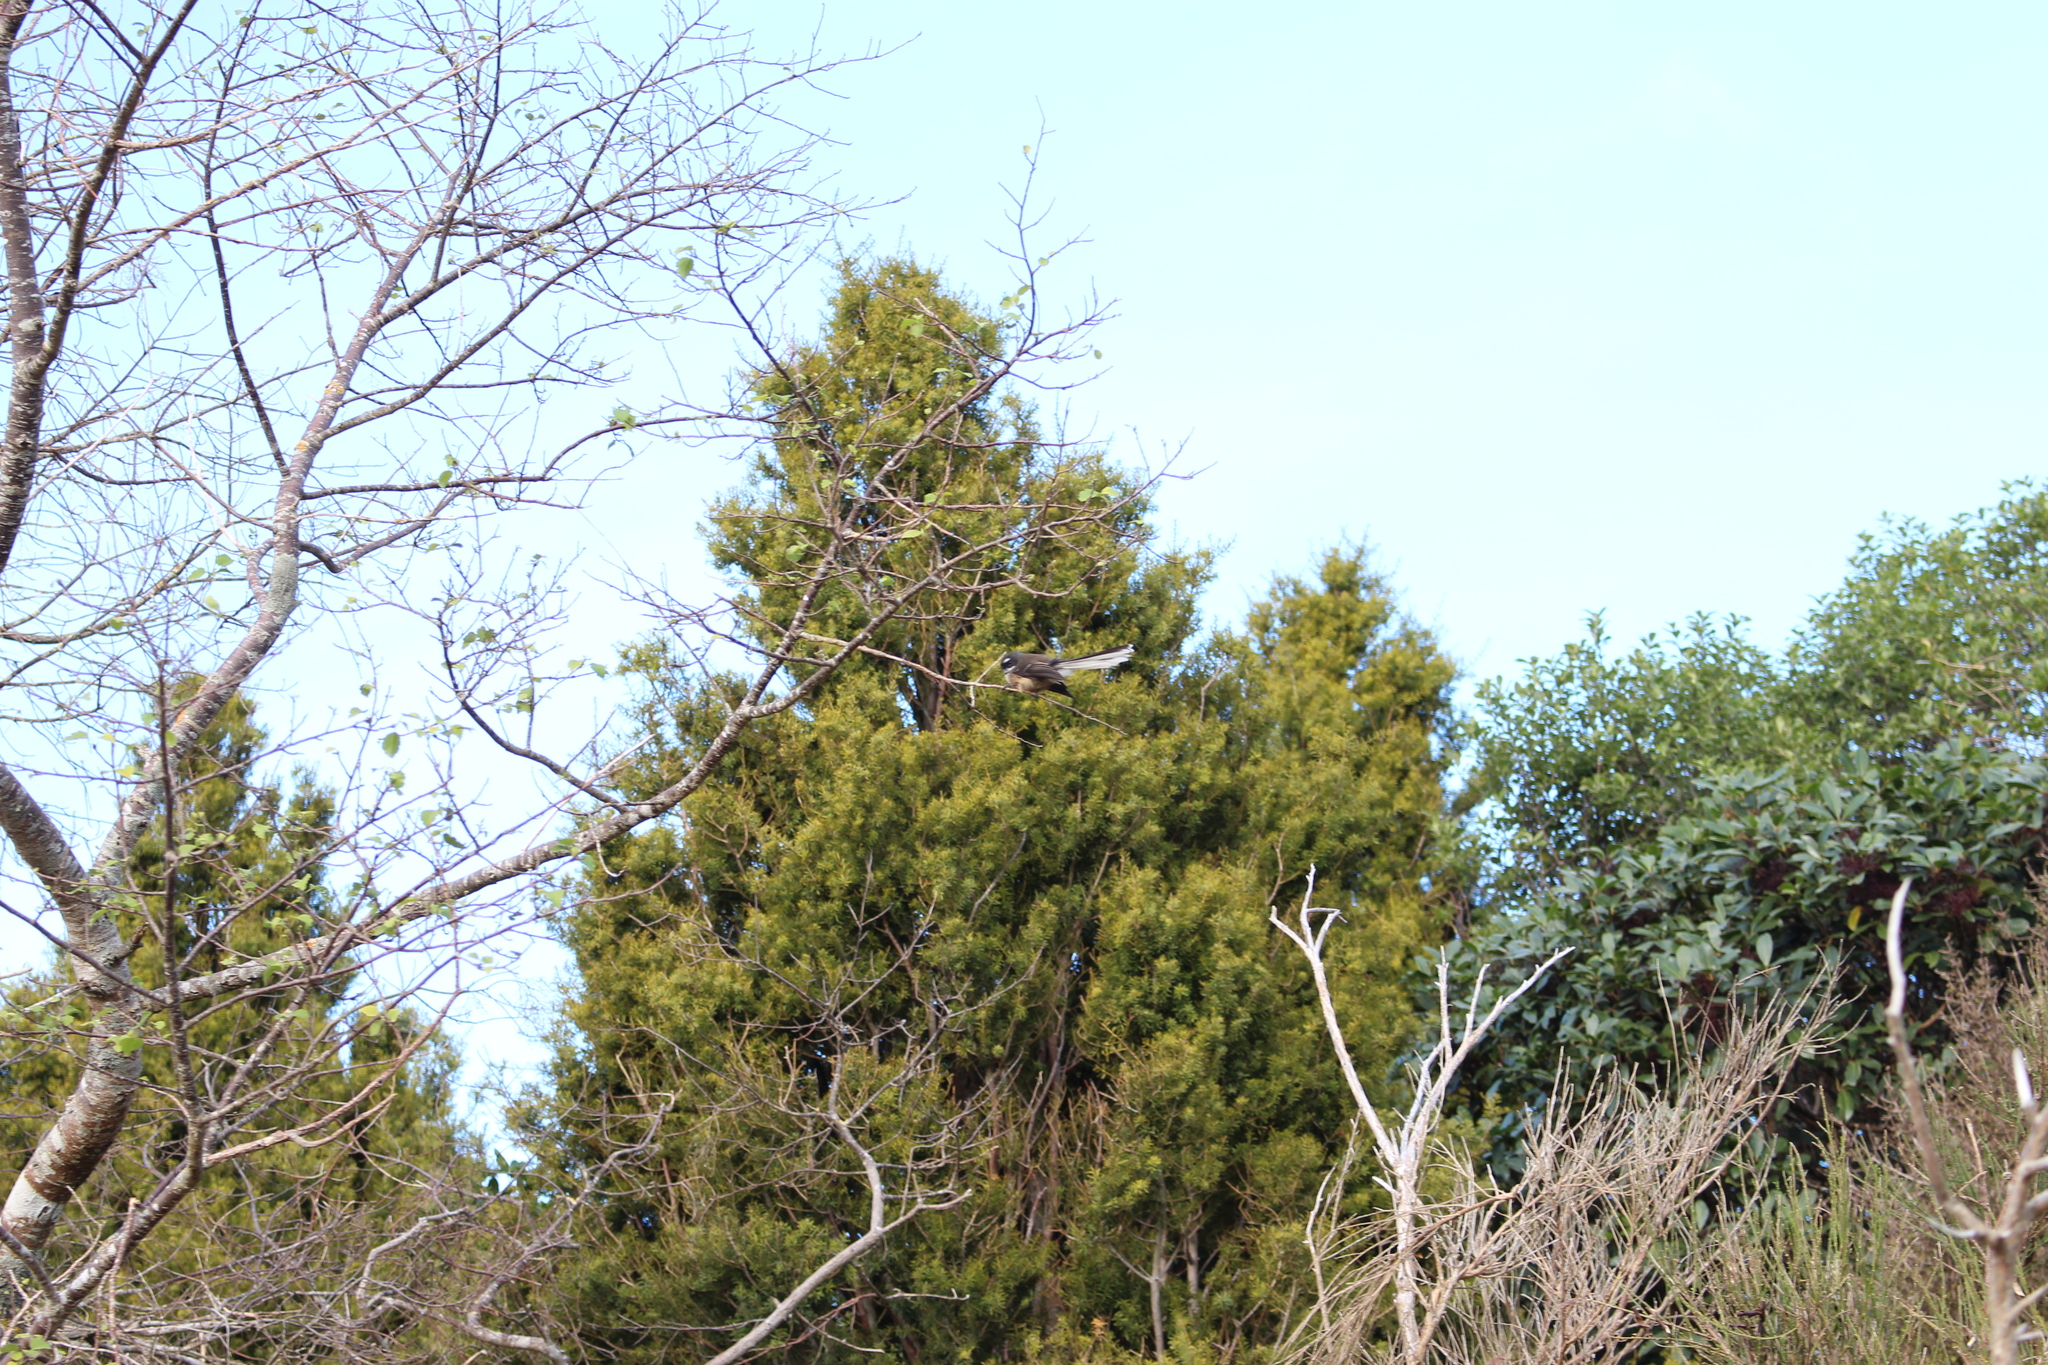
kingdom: Animalia
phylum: Chordata
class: Aves
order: Passeriformes
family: Rhipiduridae
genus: Rhipidura
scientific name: Rhipidura fuliginosa
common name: New zealand fantail
